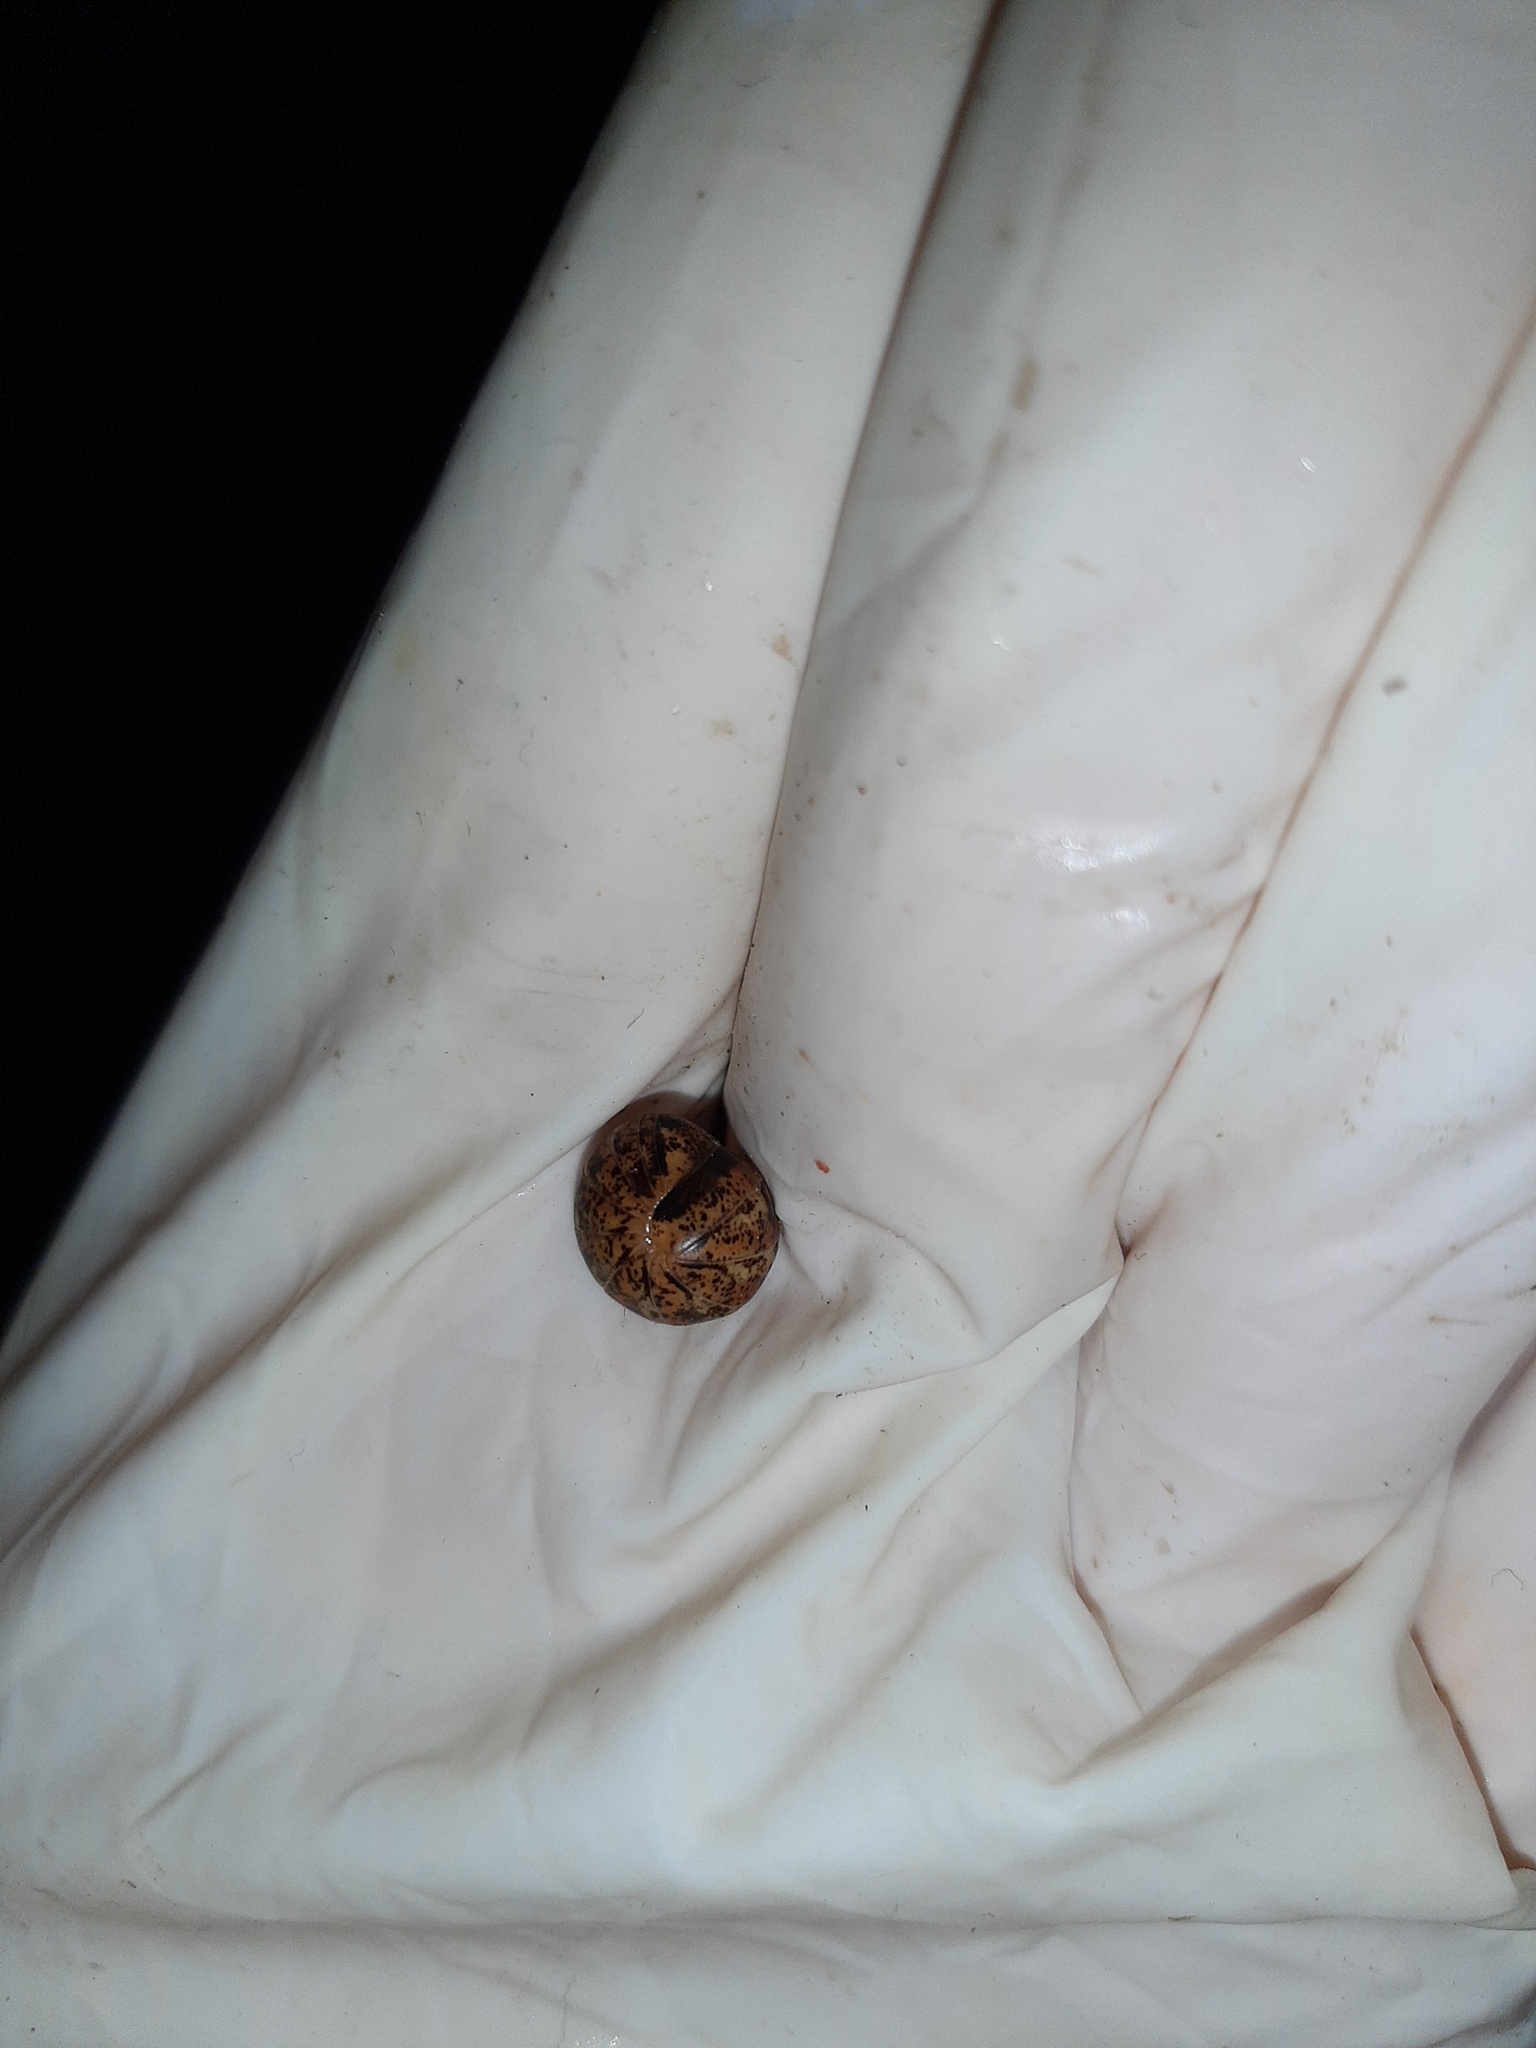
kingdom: Animalia
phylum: Arthropoda
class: Diplopoda
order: Glomerida
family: Glomeridae
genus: Glomeris
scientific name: Glomeris klugii
